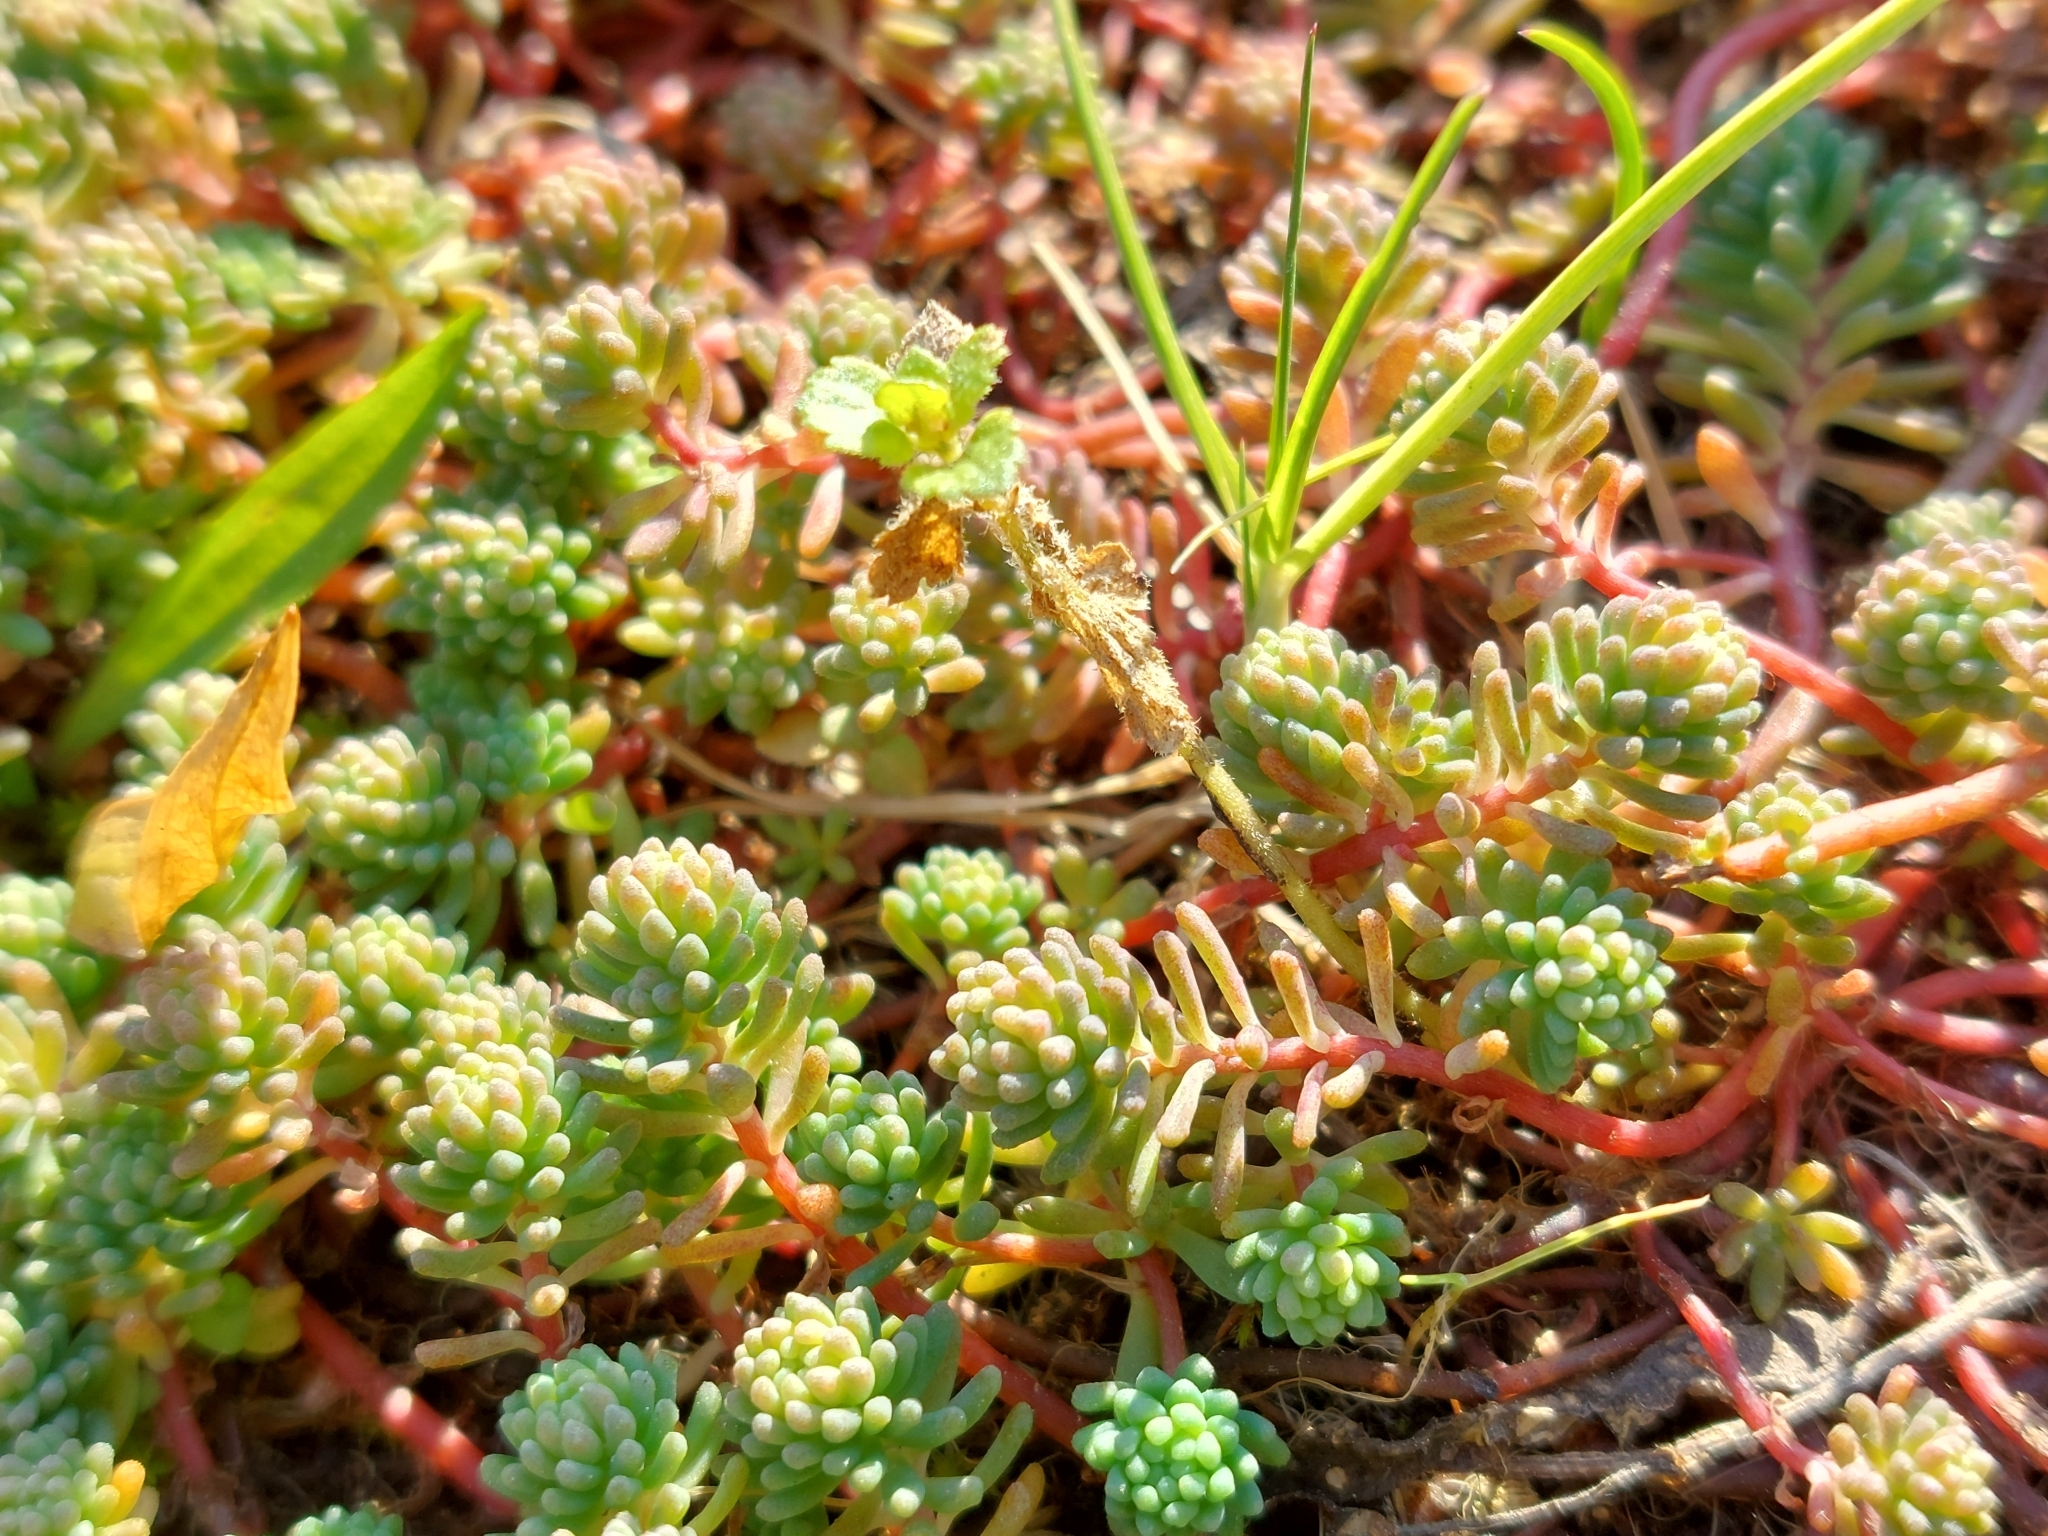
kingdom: Plantae
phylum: Tracheophyta
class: Magnoliopsida
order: Saxifragales
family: Crassulaceae
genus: Sedum
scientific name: Sedum pallidum
